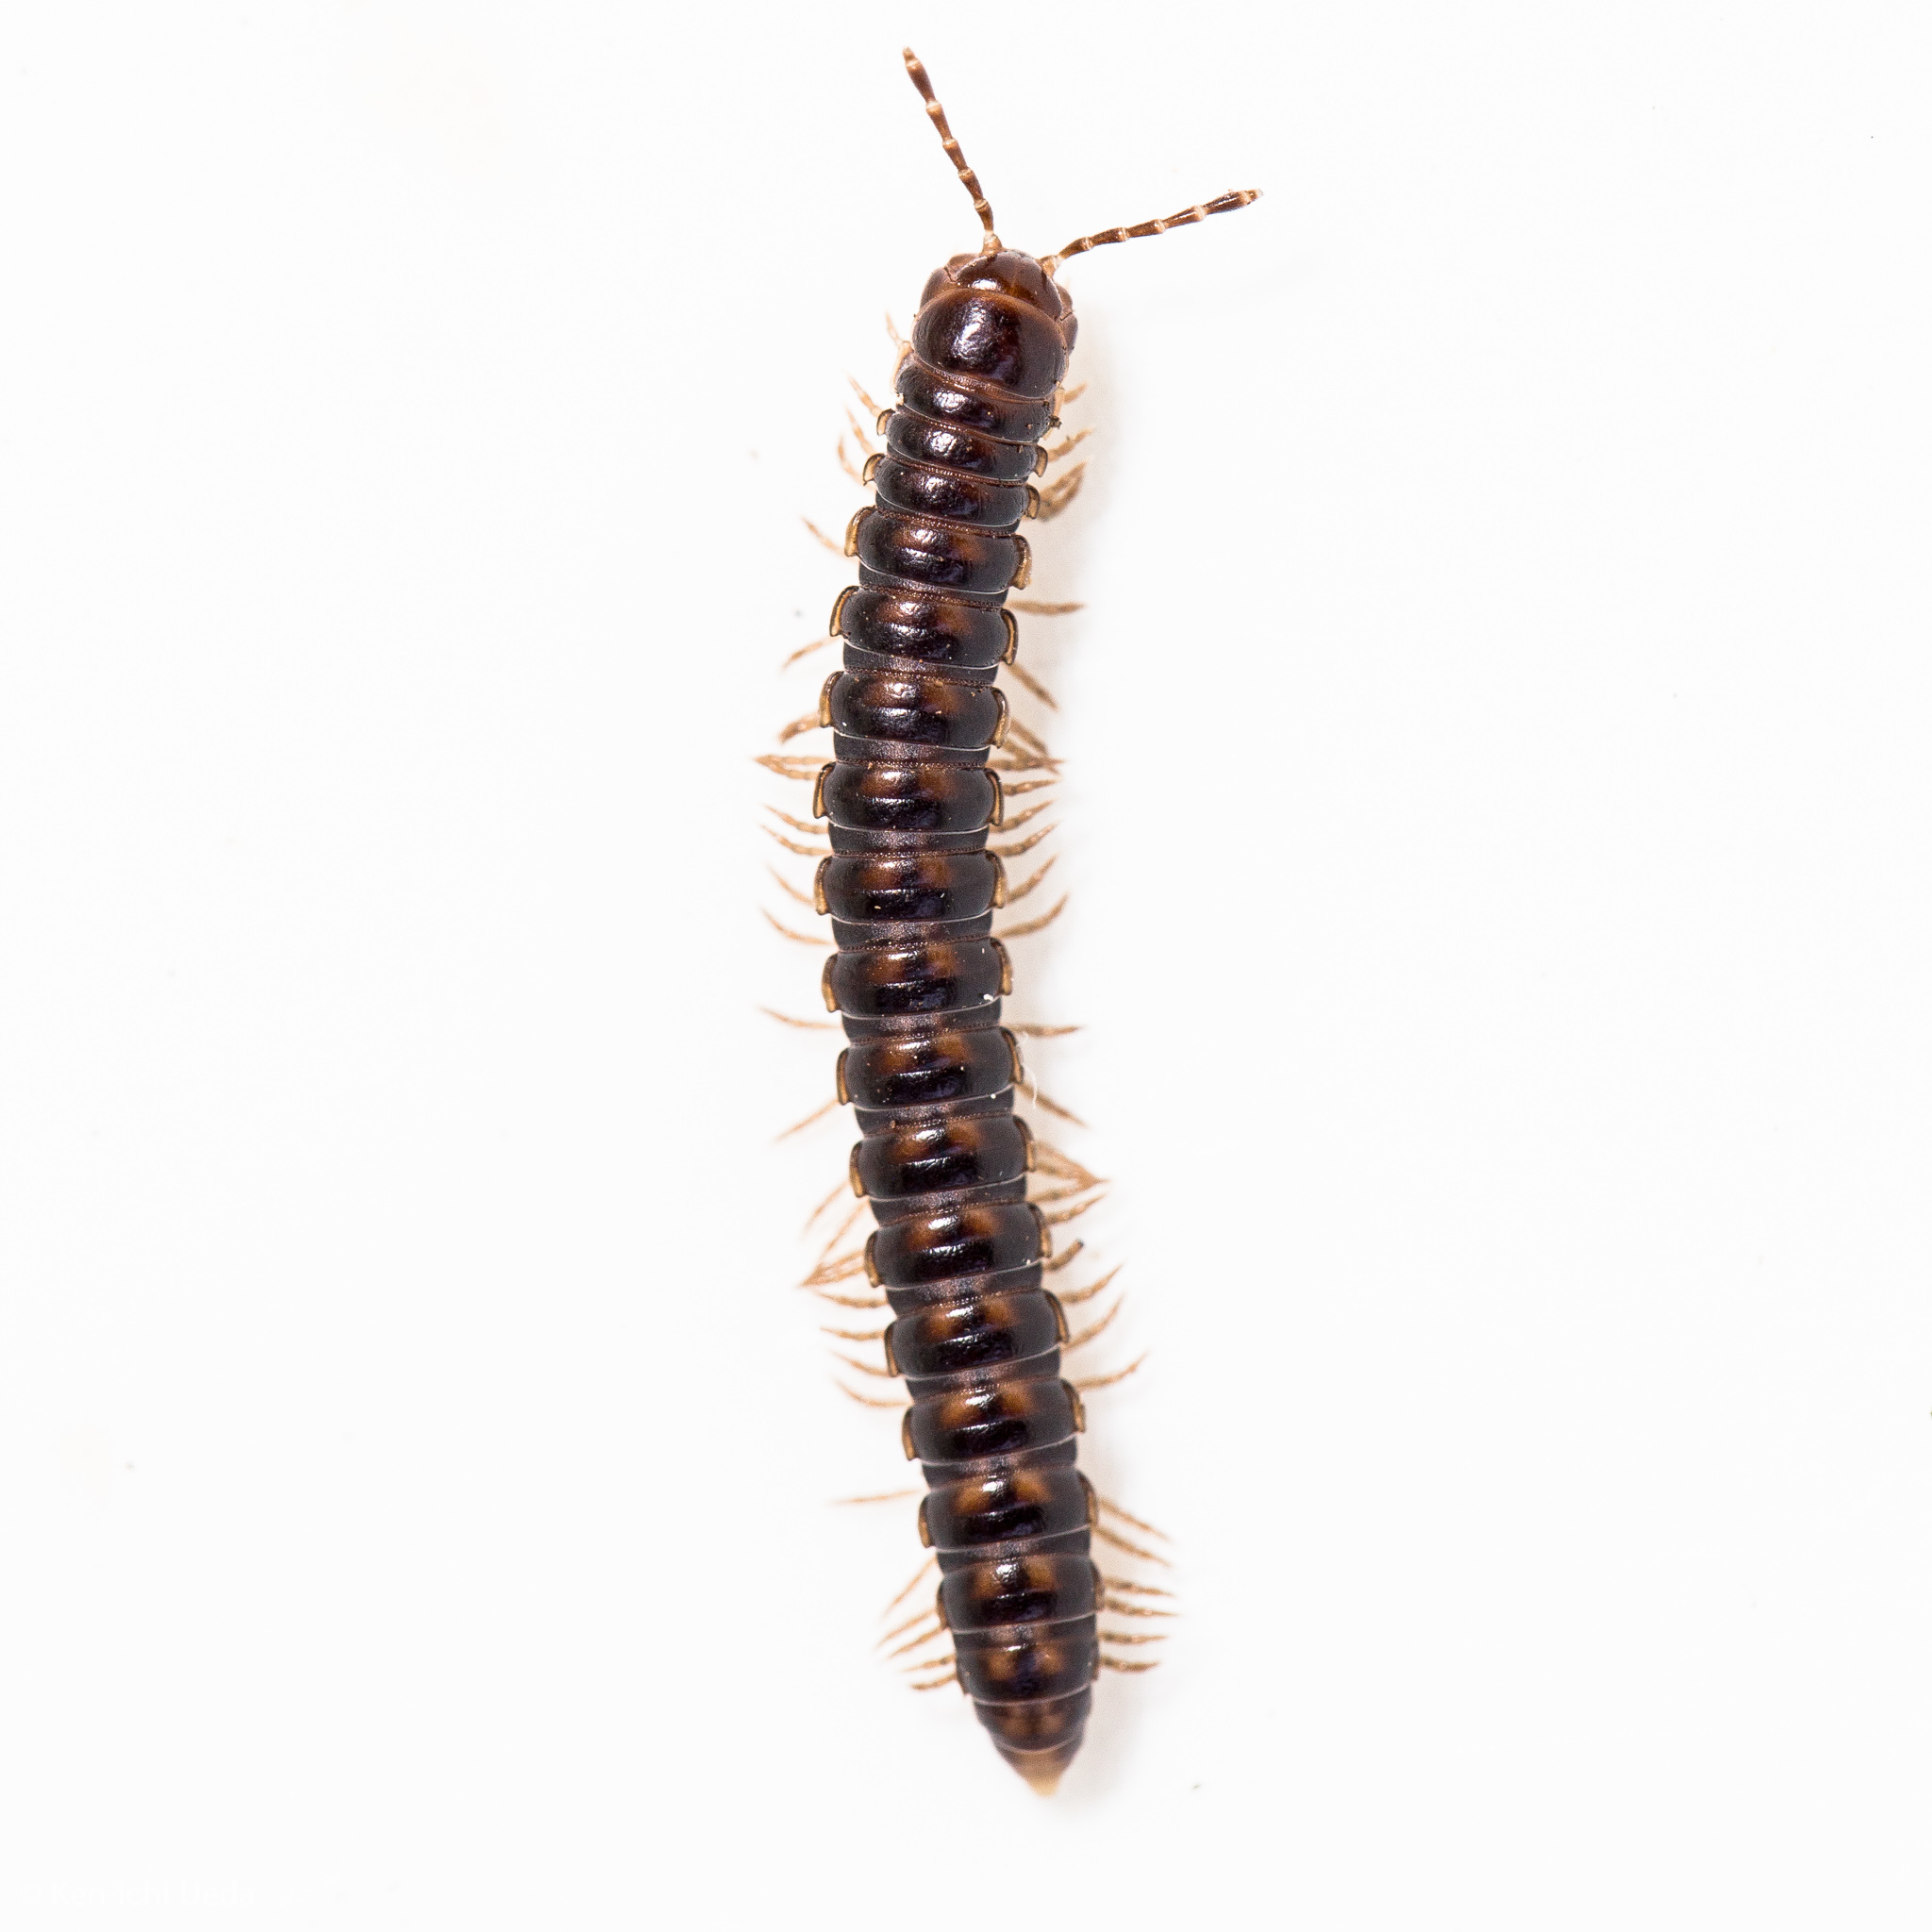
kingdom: Animalia
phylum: Arthropoda
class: Diplopoda
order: Polydesmida
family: Paradoxosomatidae
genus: Akamptogonus
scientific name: Akamptogonus novarae
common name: Millipede
